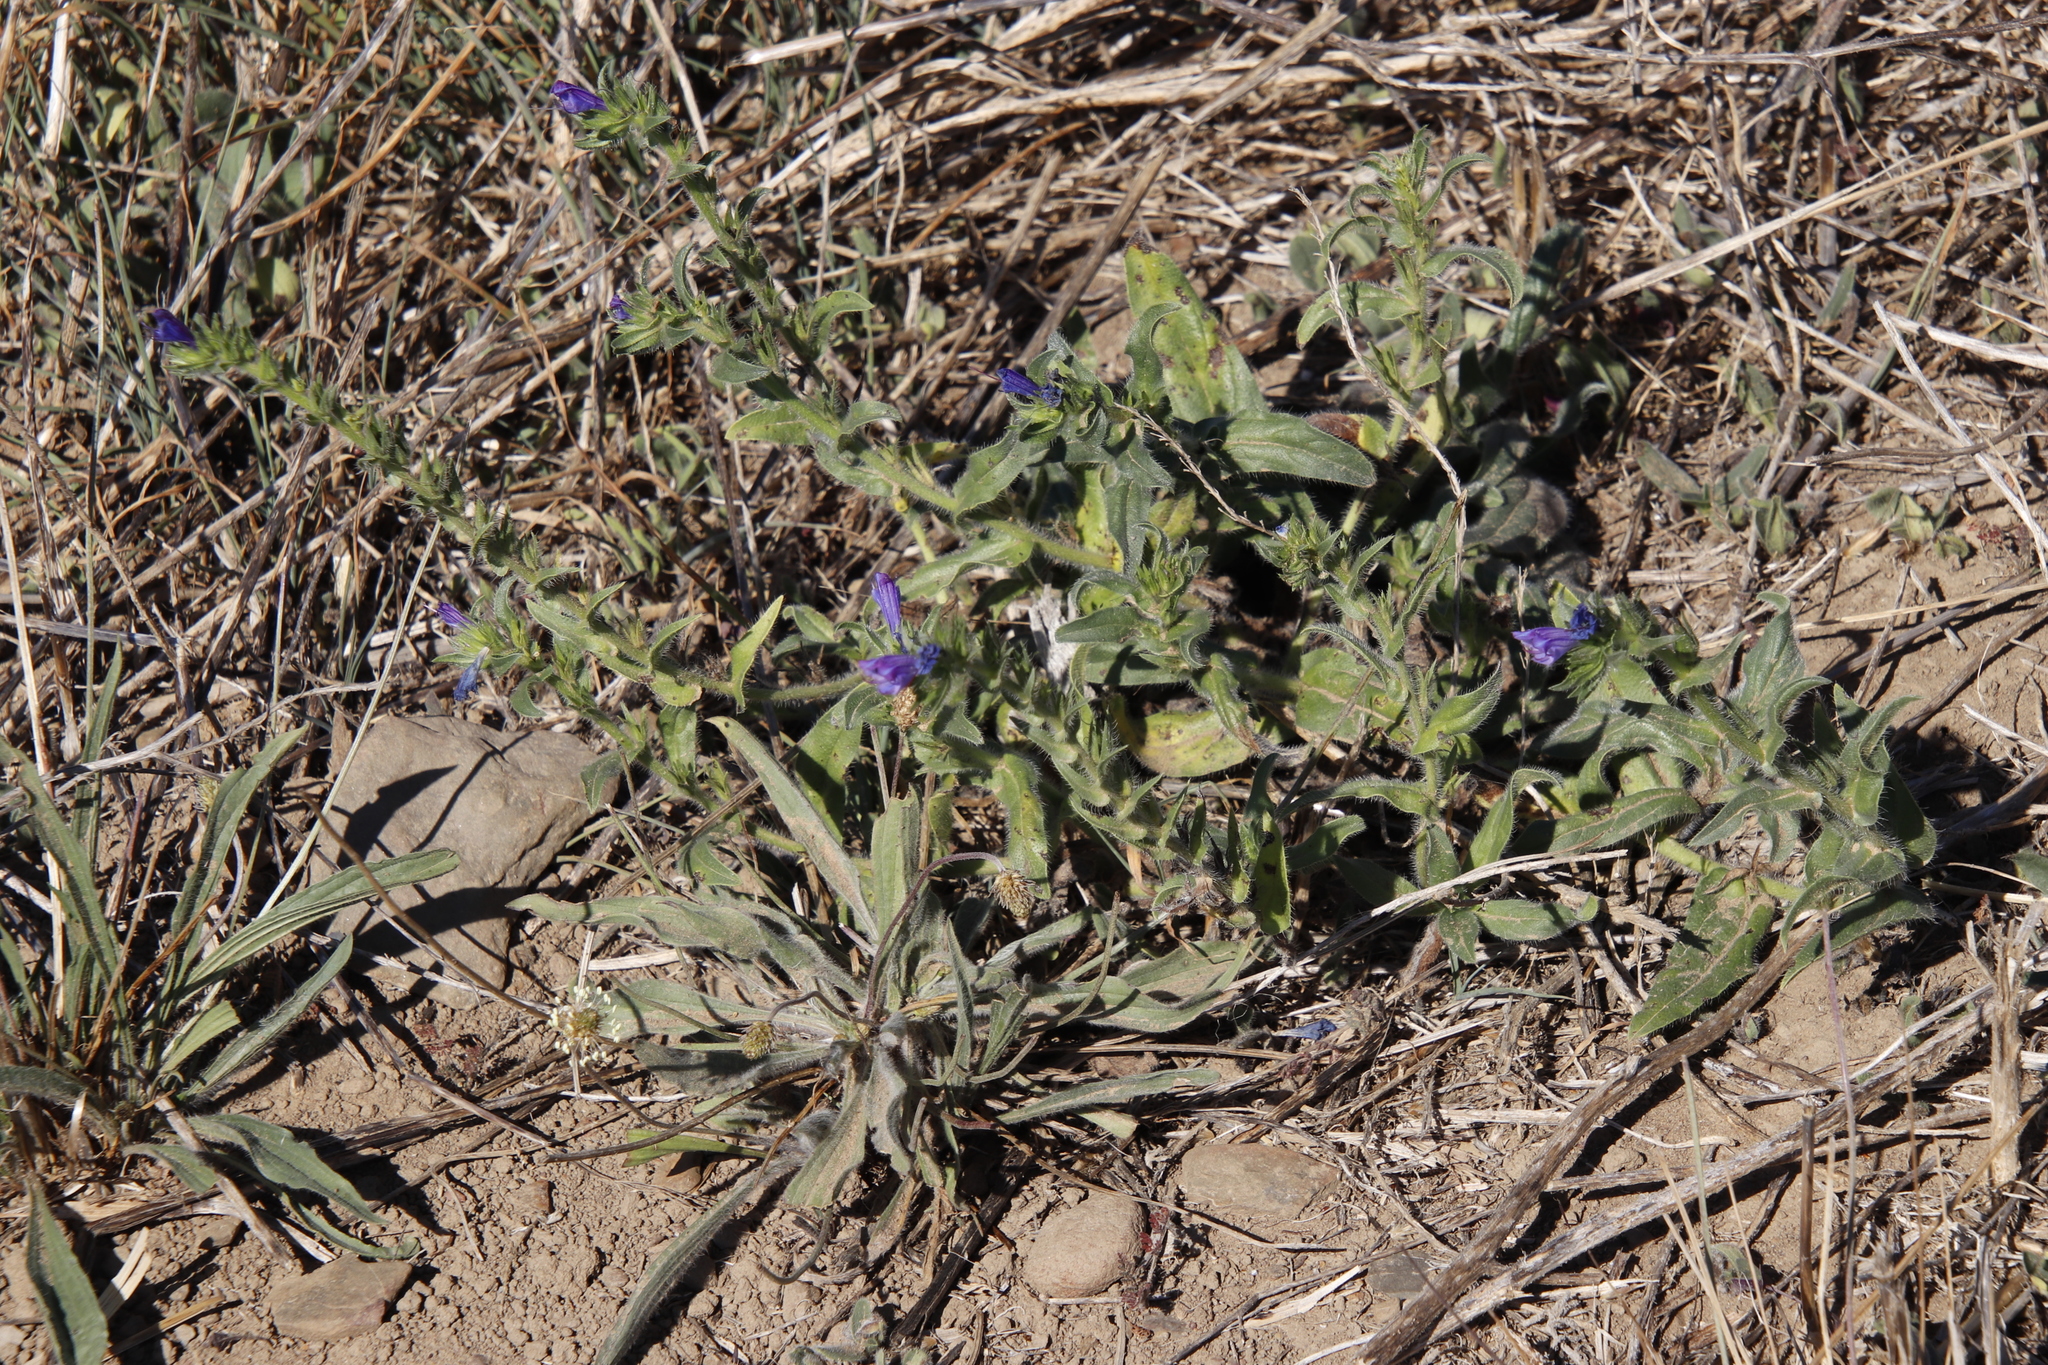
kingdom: Plantae
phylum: Tracheophyta
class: Magnoliopsida
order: Boraginales
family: Boraginaceae
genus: Echium
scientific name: Echium plantagineum
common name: Purple viper's-bugloss
